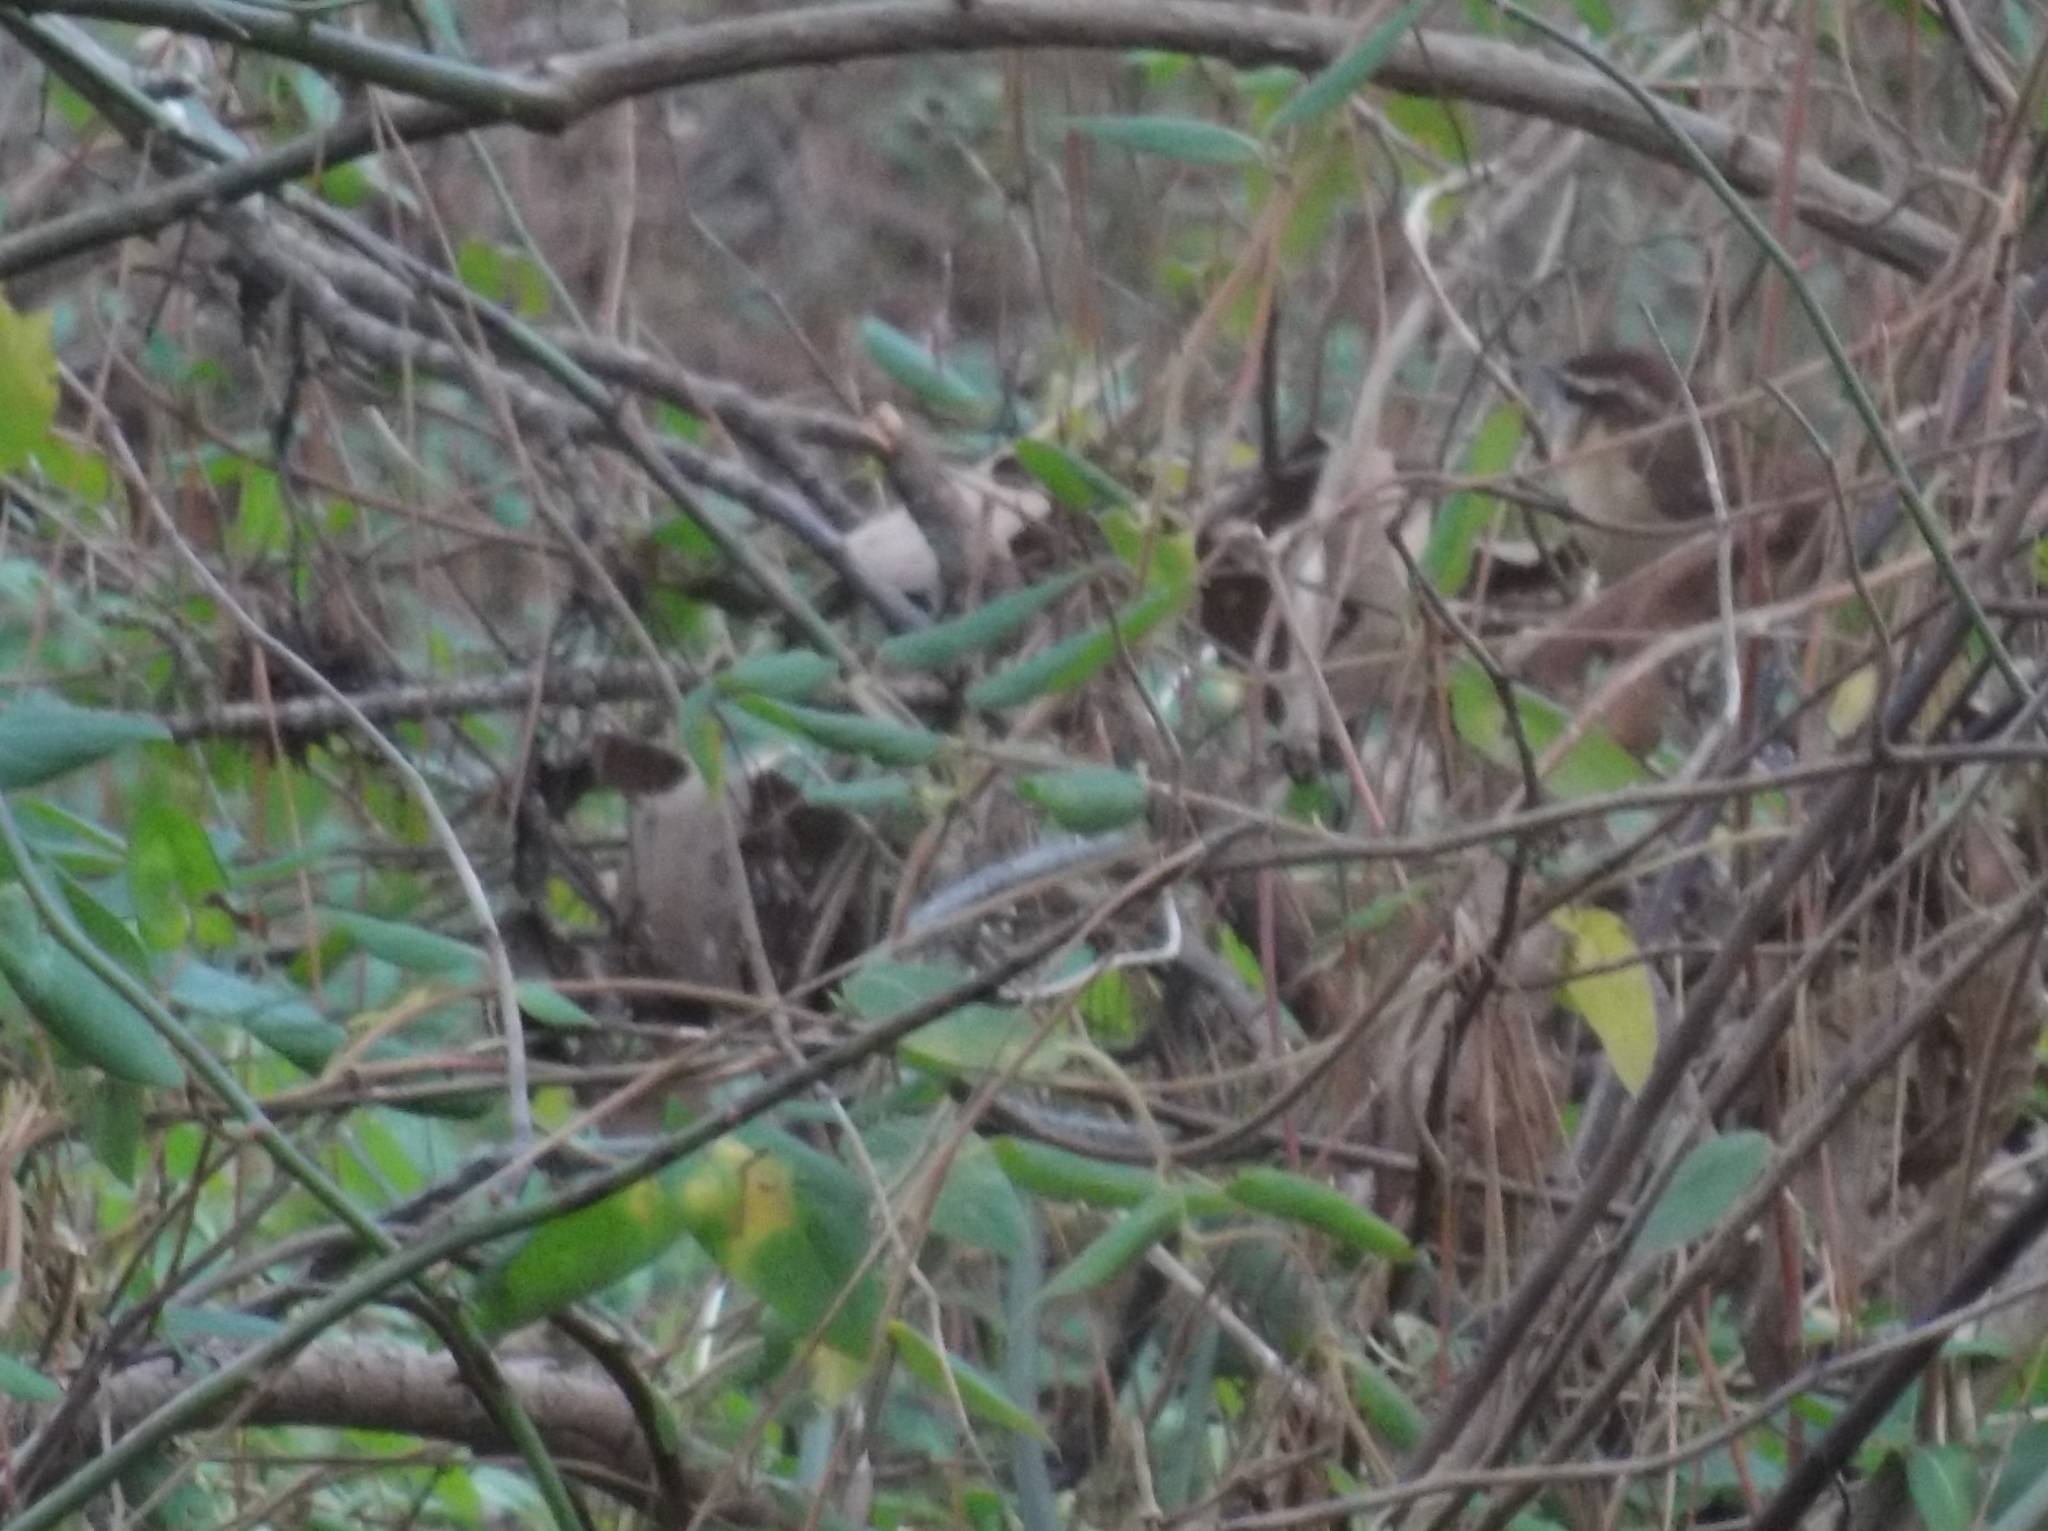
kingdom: Animalia
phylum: Chordata
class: Aves
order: Passeriformes
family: Troglodytidae
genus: Thryothorus
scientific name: Thryothorus ludovicianus
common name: Carolina wren
